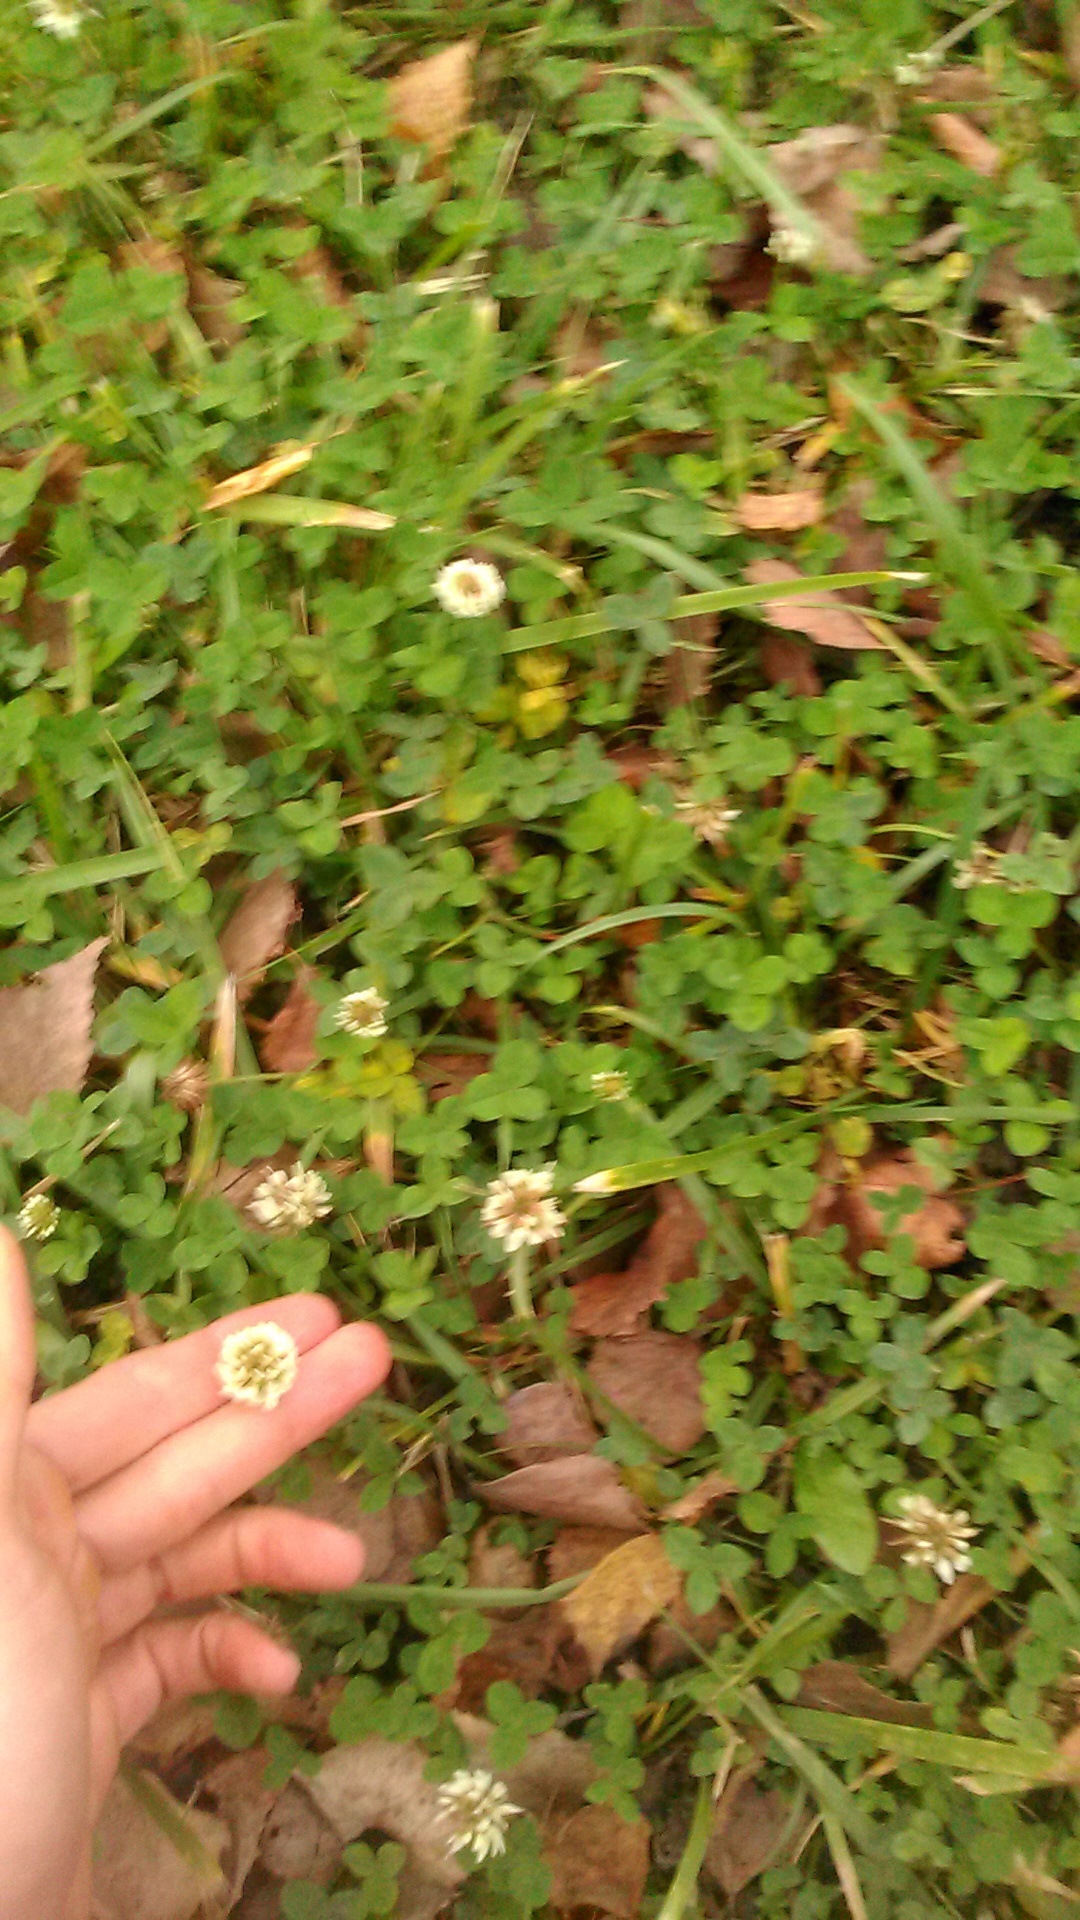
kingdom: Plantae
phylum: Tracheophyta
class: Magnoliopsida
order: Fabales
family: Fabaceae
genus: Trifolium
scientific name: Trifolium repens
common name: White clover
